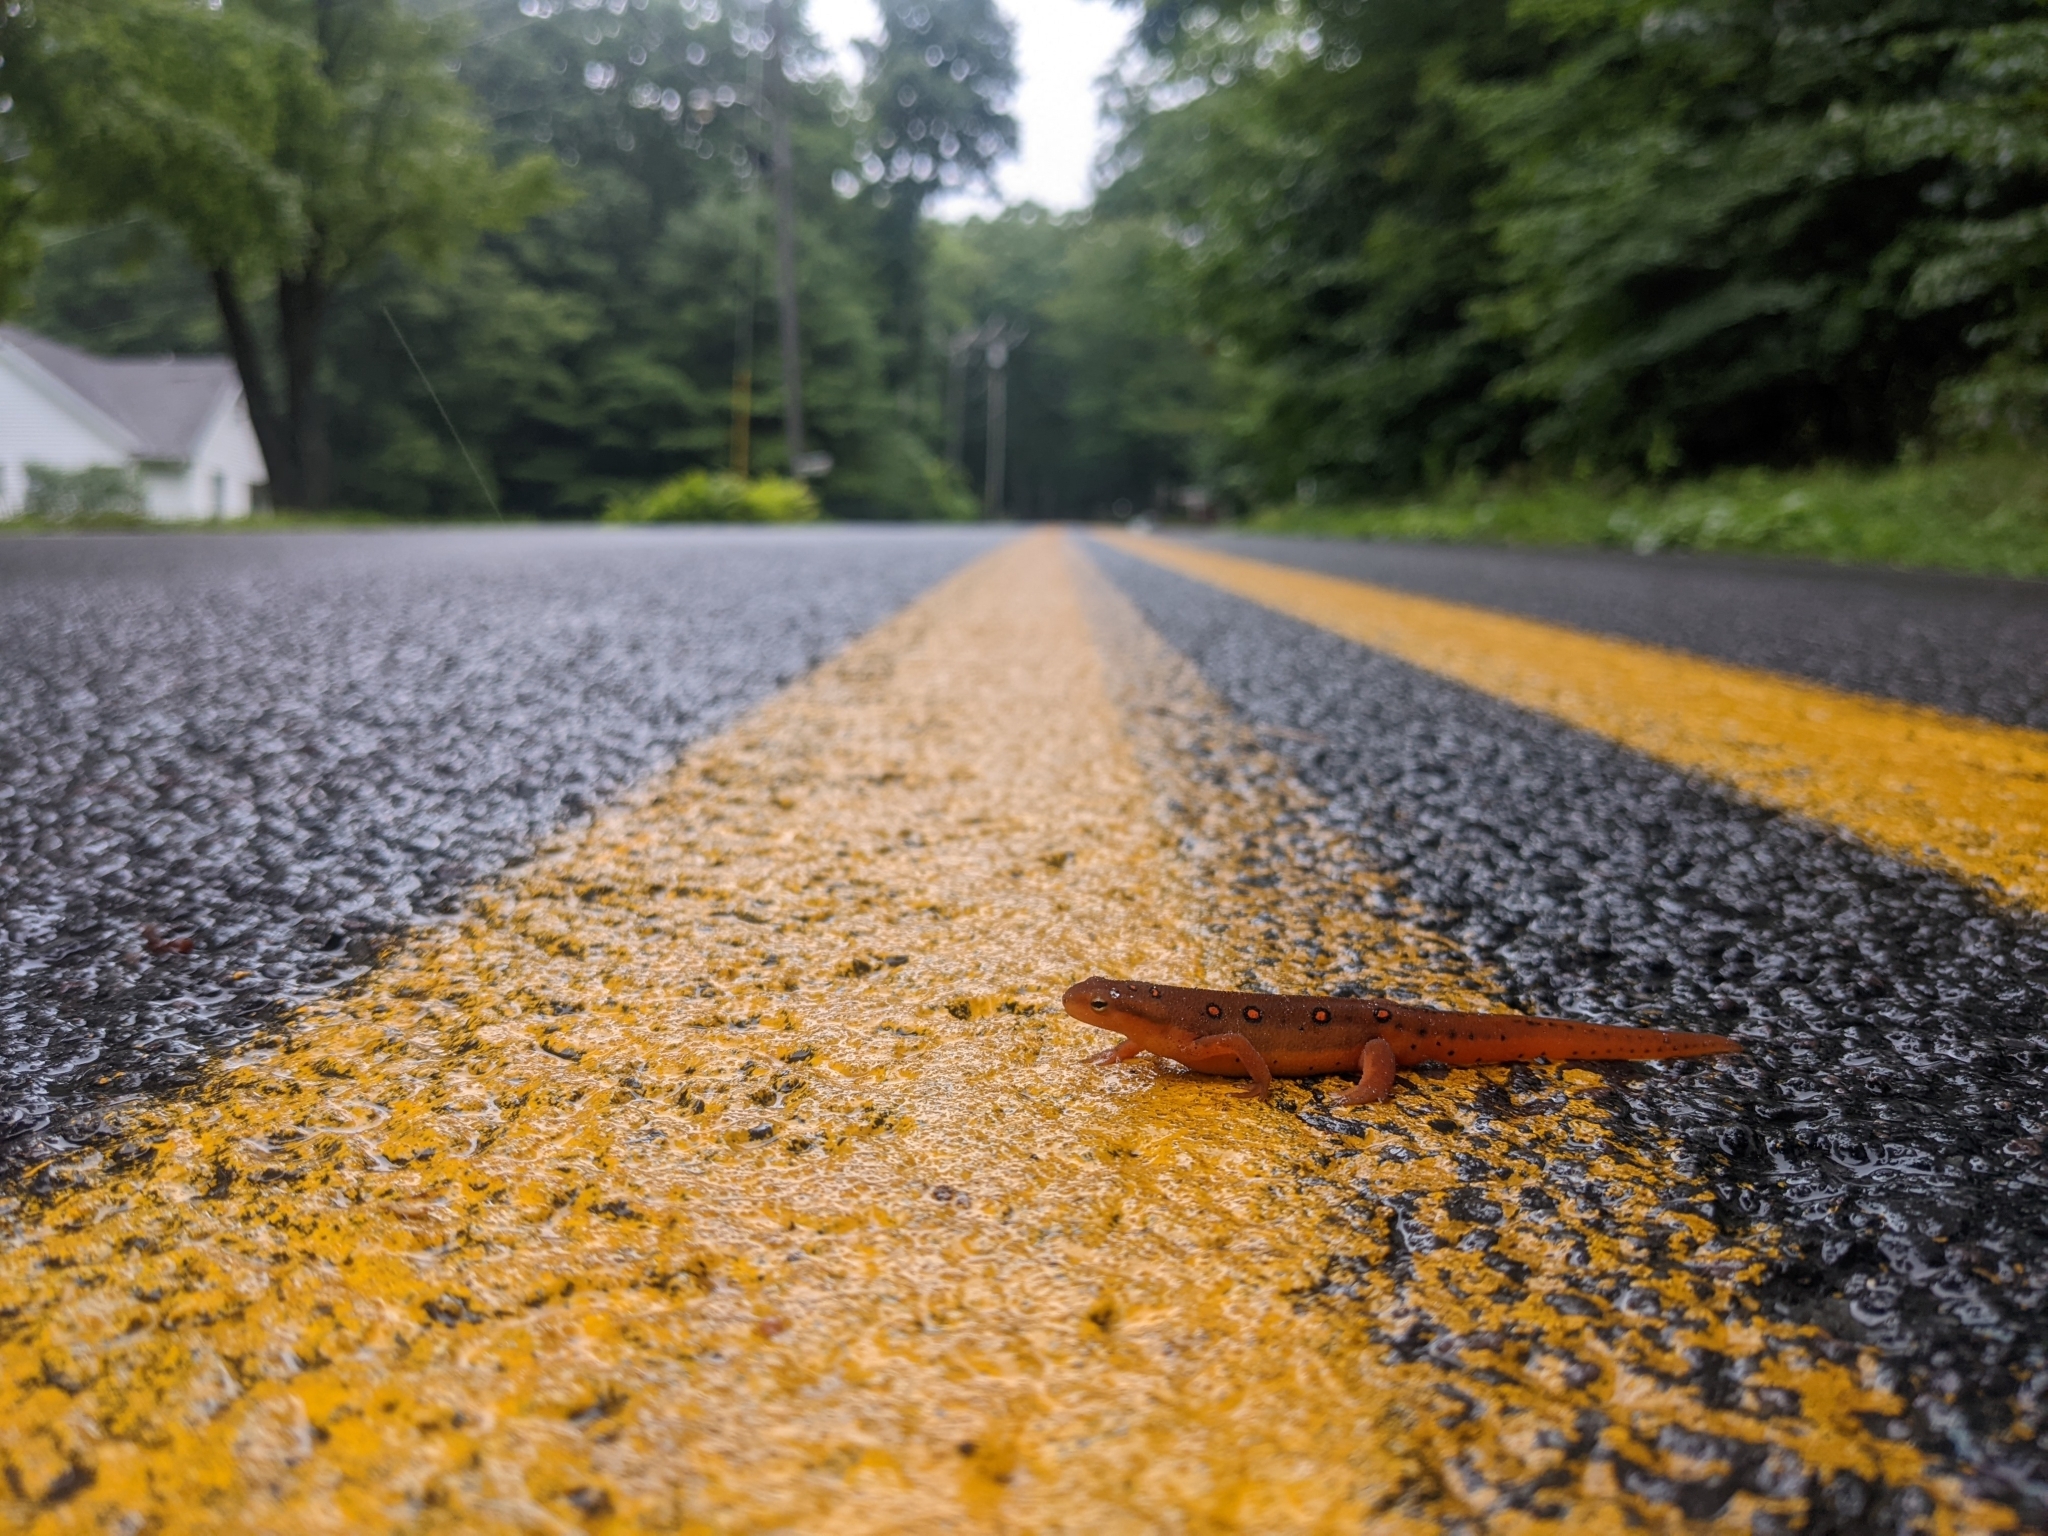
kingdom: Animalia
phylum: Chordata
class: Amphibia
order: Caudata
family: Salamandridae
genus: Notophthalmus
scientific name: Notophthalmus viridescens
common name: Eastern newt
